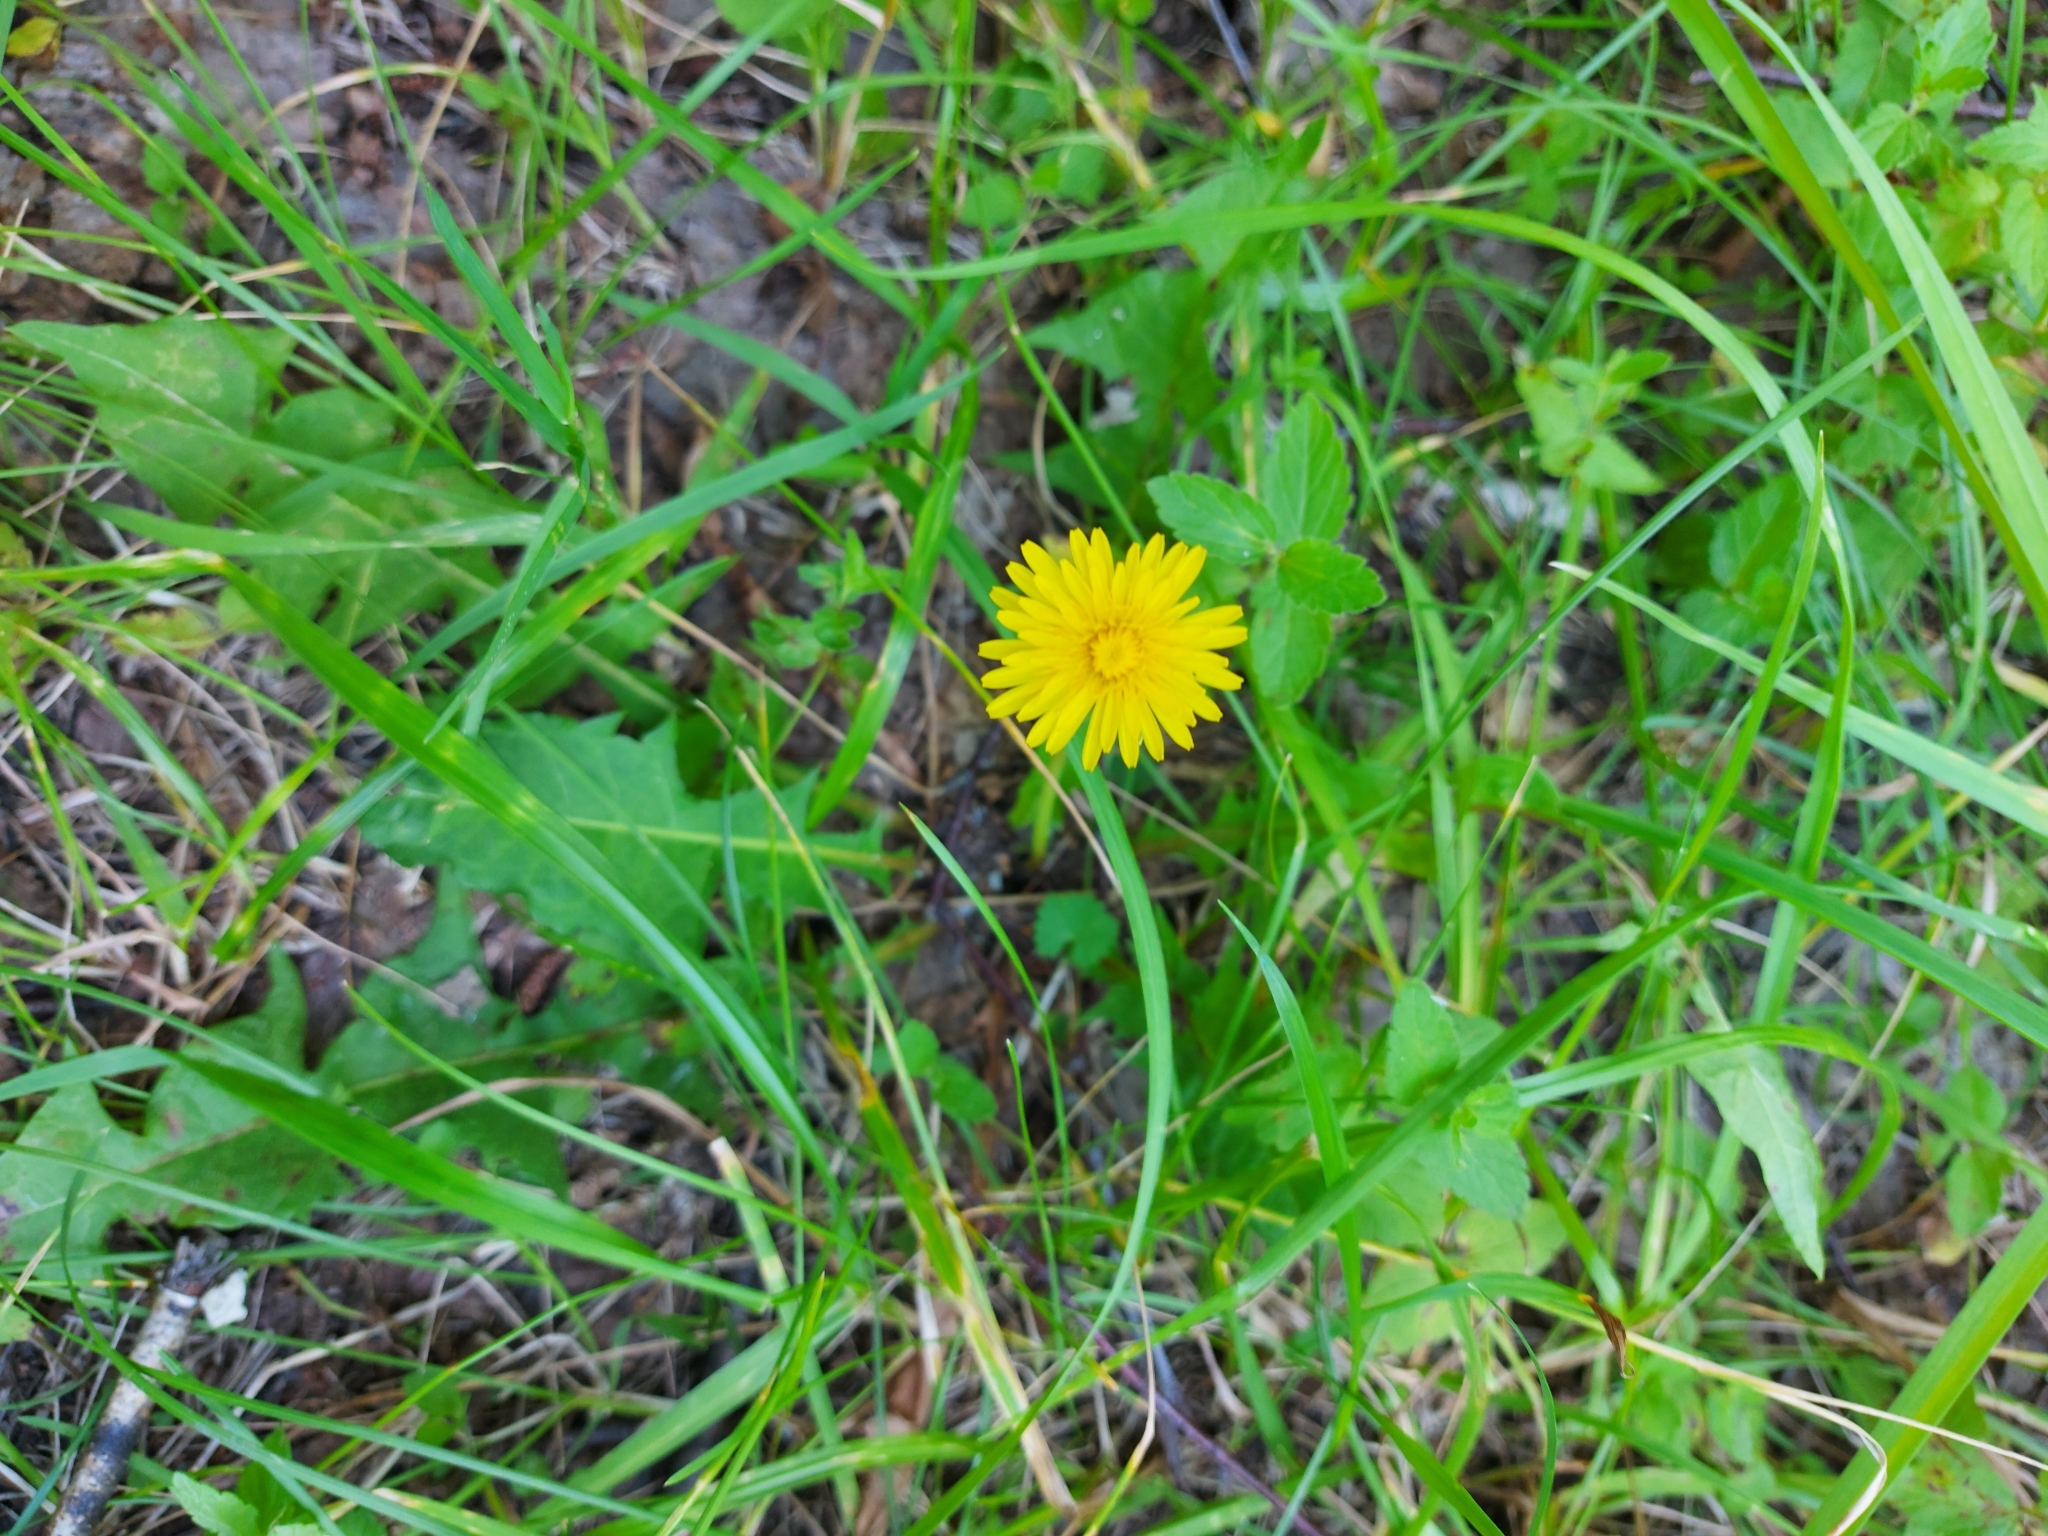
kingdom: Plantae
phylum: Tracheophyta
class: Magnoliopsida
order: Asterales
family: Asteraceae
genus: Taraxacum
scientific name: Taraxacum
